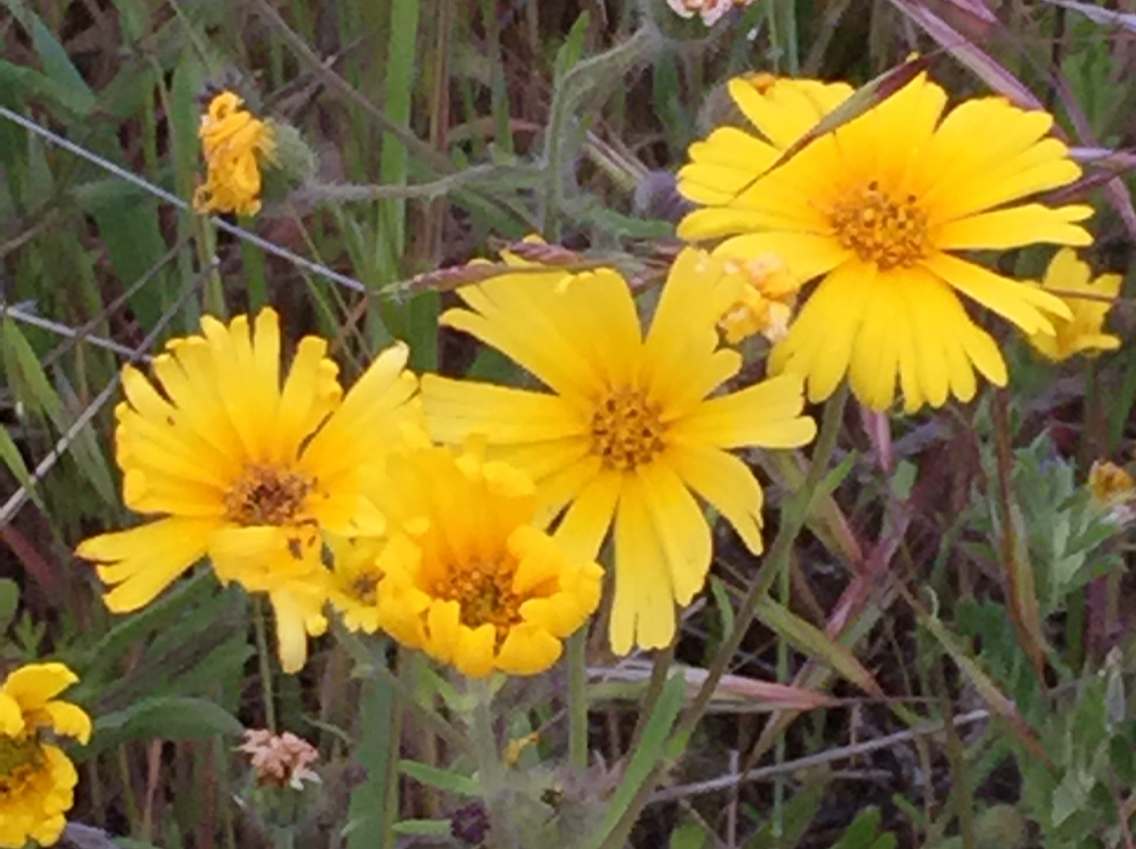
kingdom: Plantae
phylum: Tracheophyta
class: Magnoliopsida
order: Asterales
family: Asteraceae
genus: Madia
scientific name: Madia elegans
